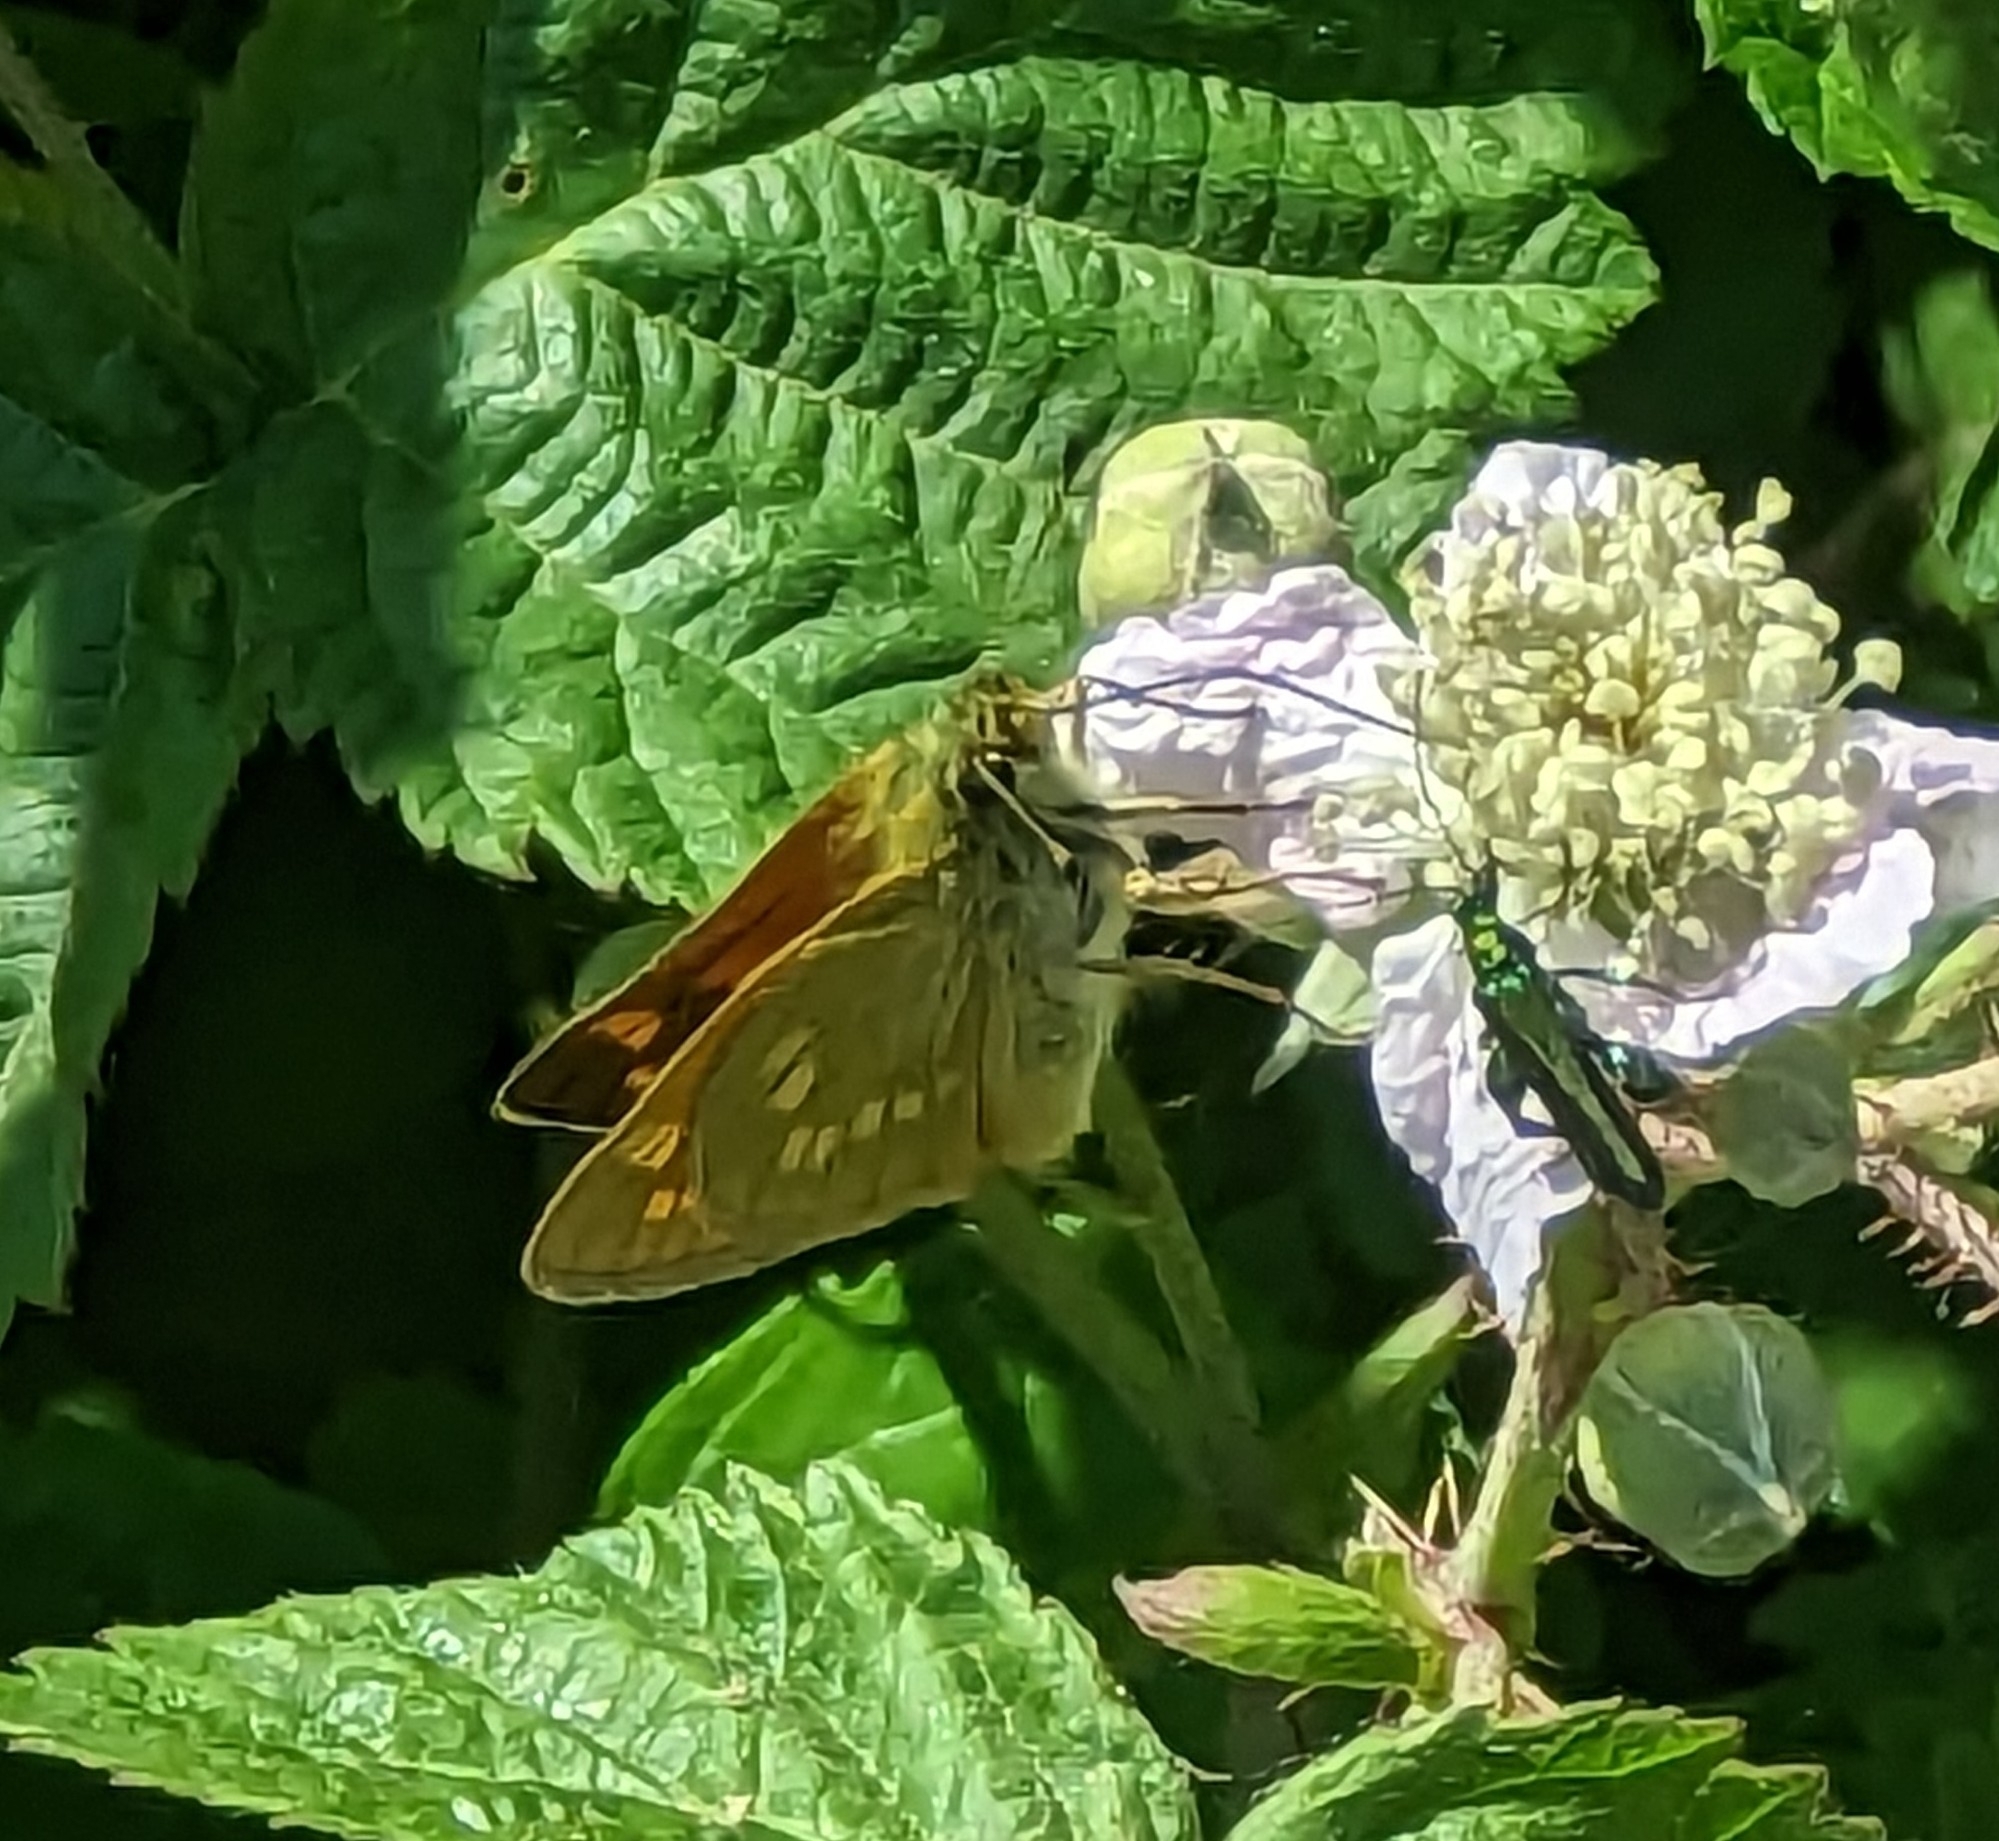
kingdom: Animalia
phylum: Arthropoda
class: Insecta
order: Lepidoptera
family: Hesperiidae
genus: Ochlodes
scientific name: Ochlodes venata
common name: Large skipper
